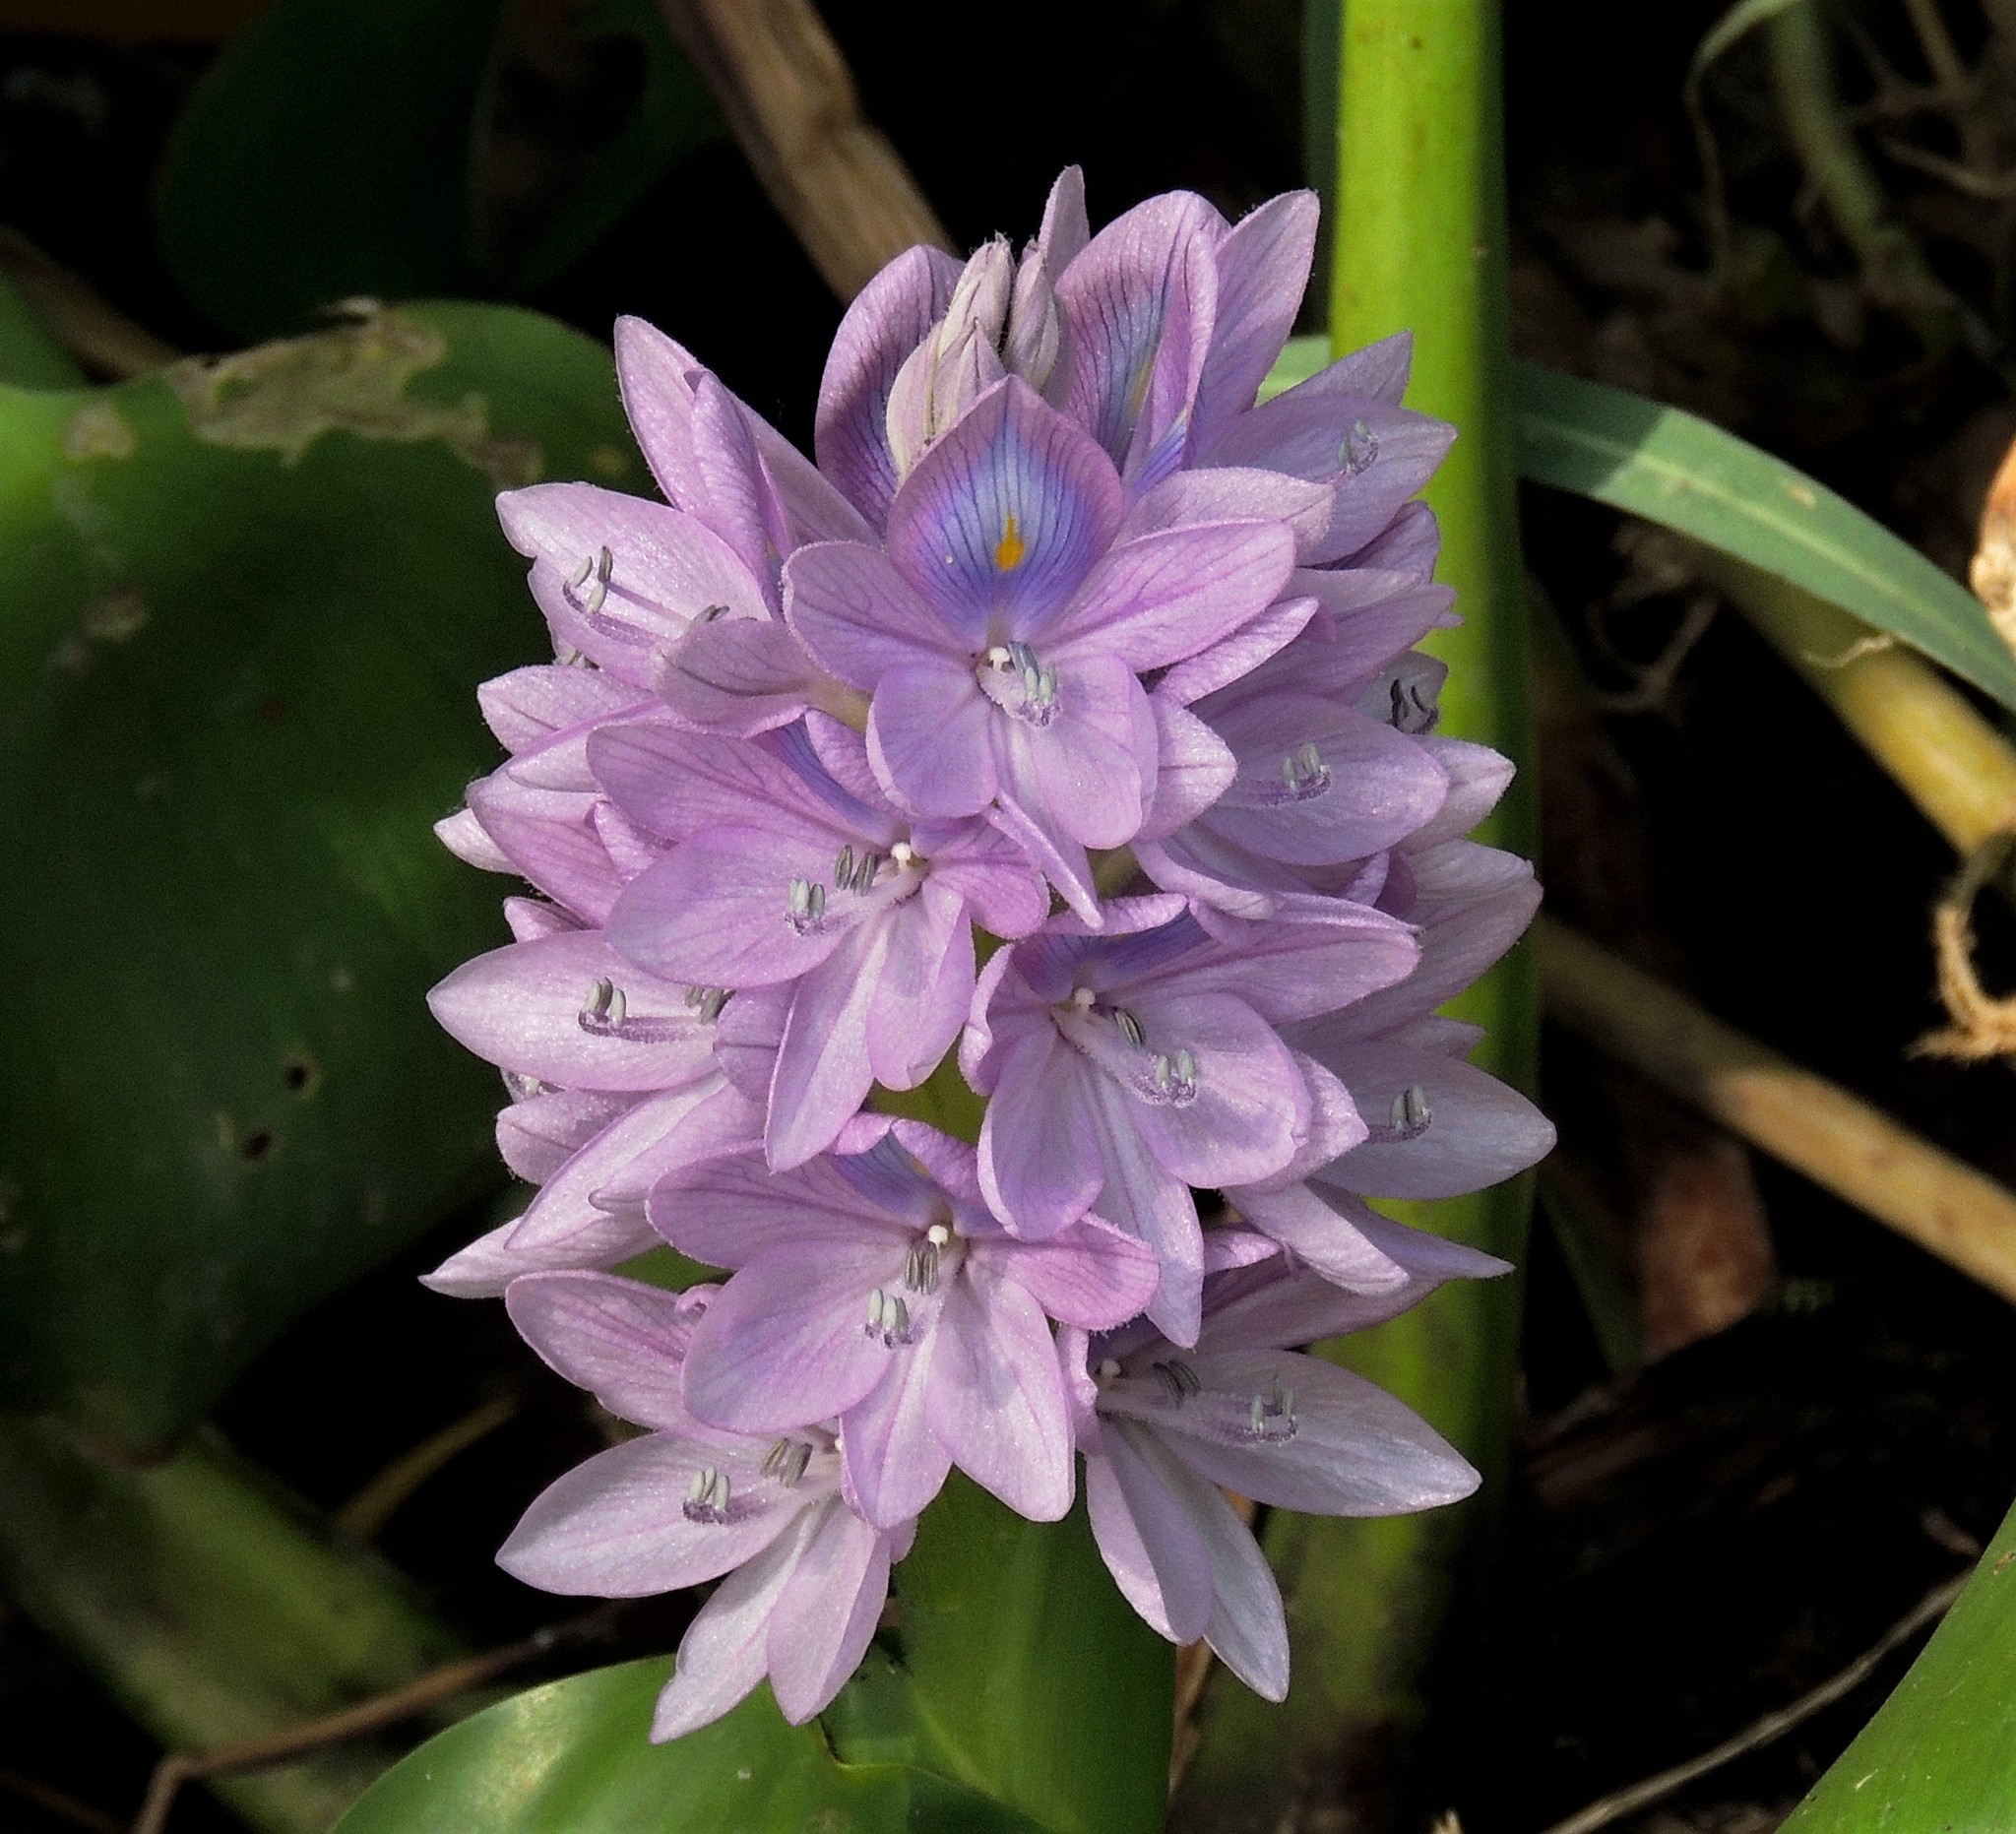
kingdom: Plantae
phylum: Tracheophyta
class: Liliopsida
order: Commelinales
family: Pontederiaceae
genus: Pontederia
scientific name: Pontederia crassipes
